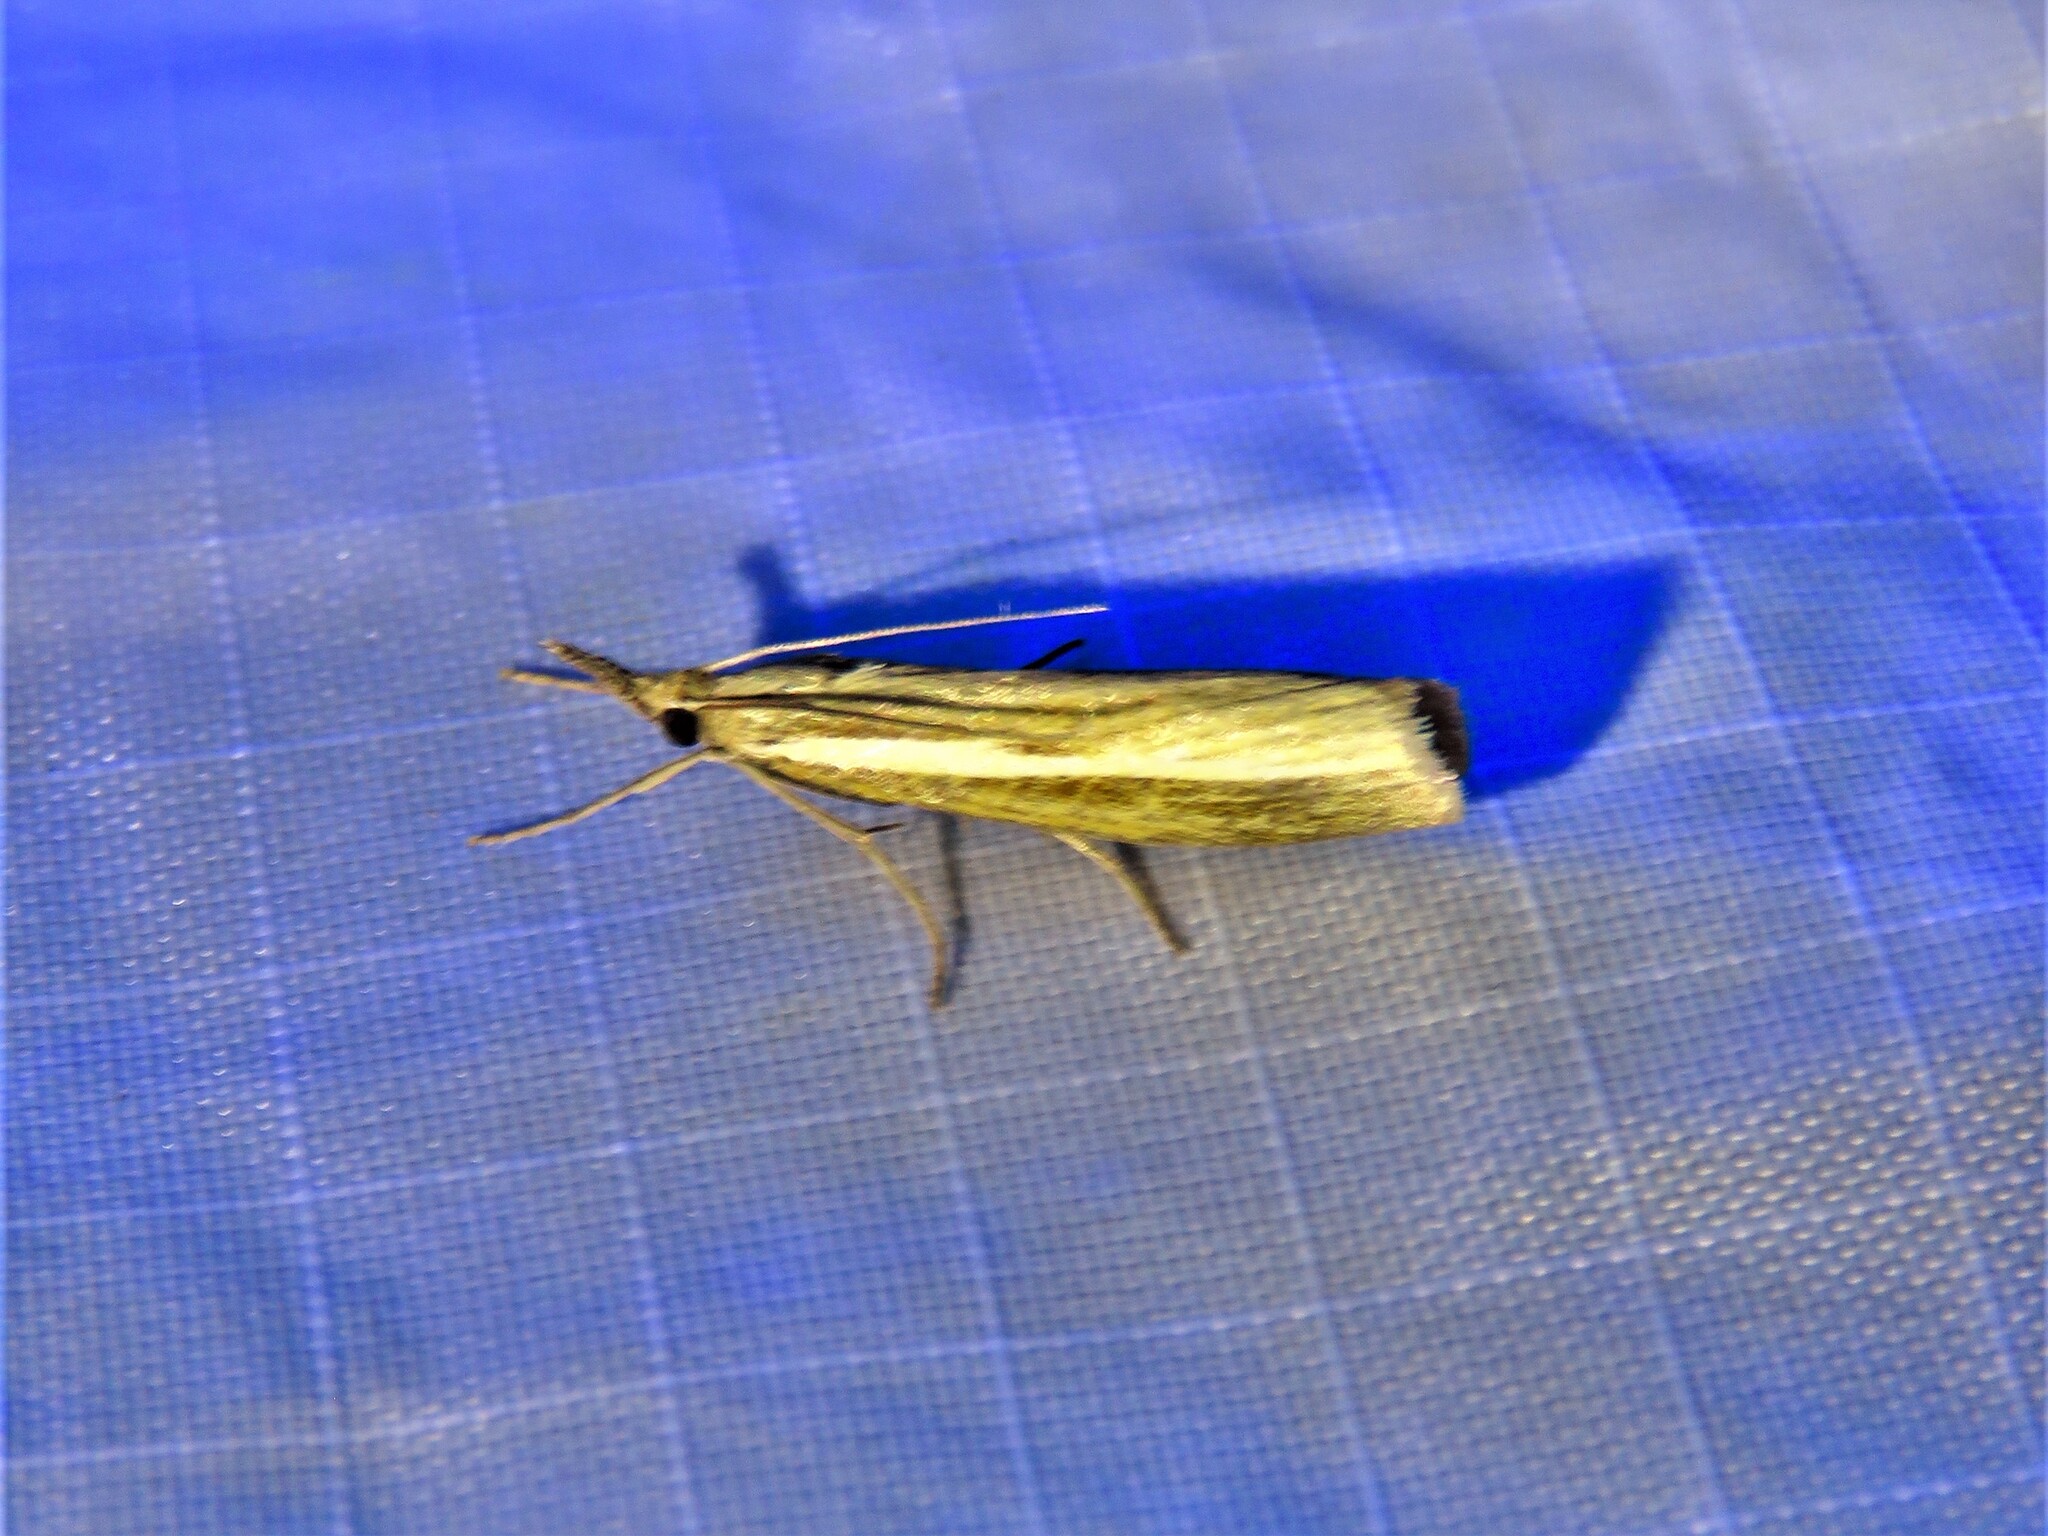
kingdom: Animalia
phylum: Arthropoda
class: Insecta
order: Lepidoptera
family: Crambidae
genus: Agriphila
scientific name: Agriphila tristellus
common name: Common grass-veneer
